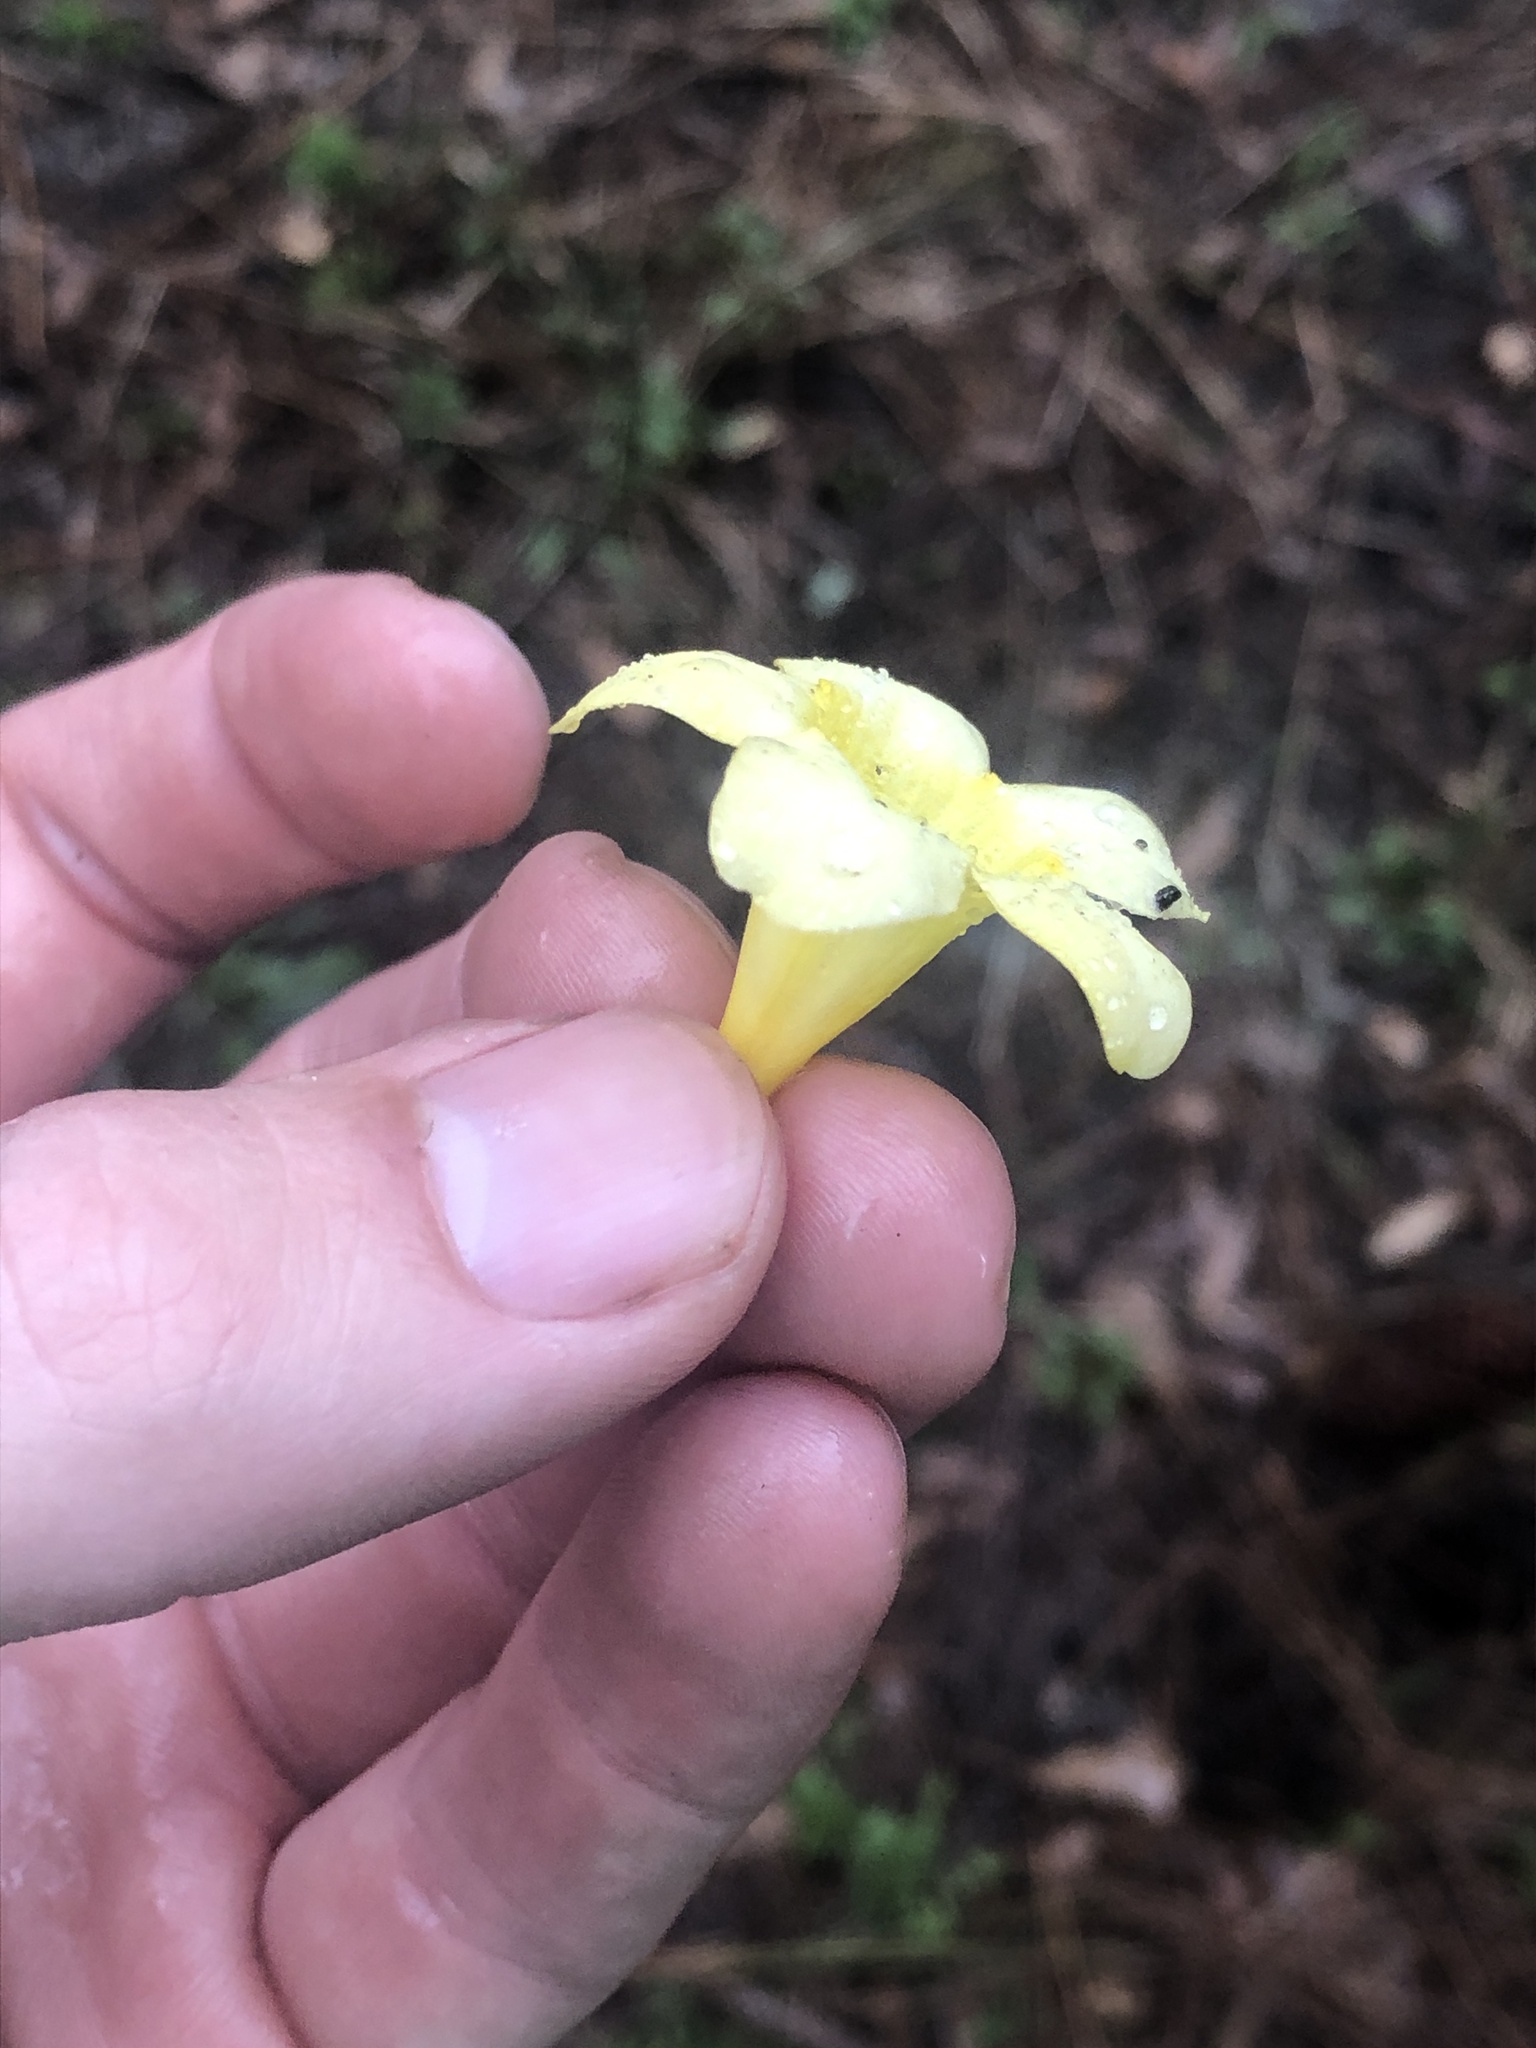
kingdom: Plantae
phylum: Tracheophyta
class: Magnoliopsida
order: Gentianales
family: Gelsemiaceae
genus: Gelsemium
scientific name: Gelsemium sempervirens
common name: Carolina-jasmine
